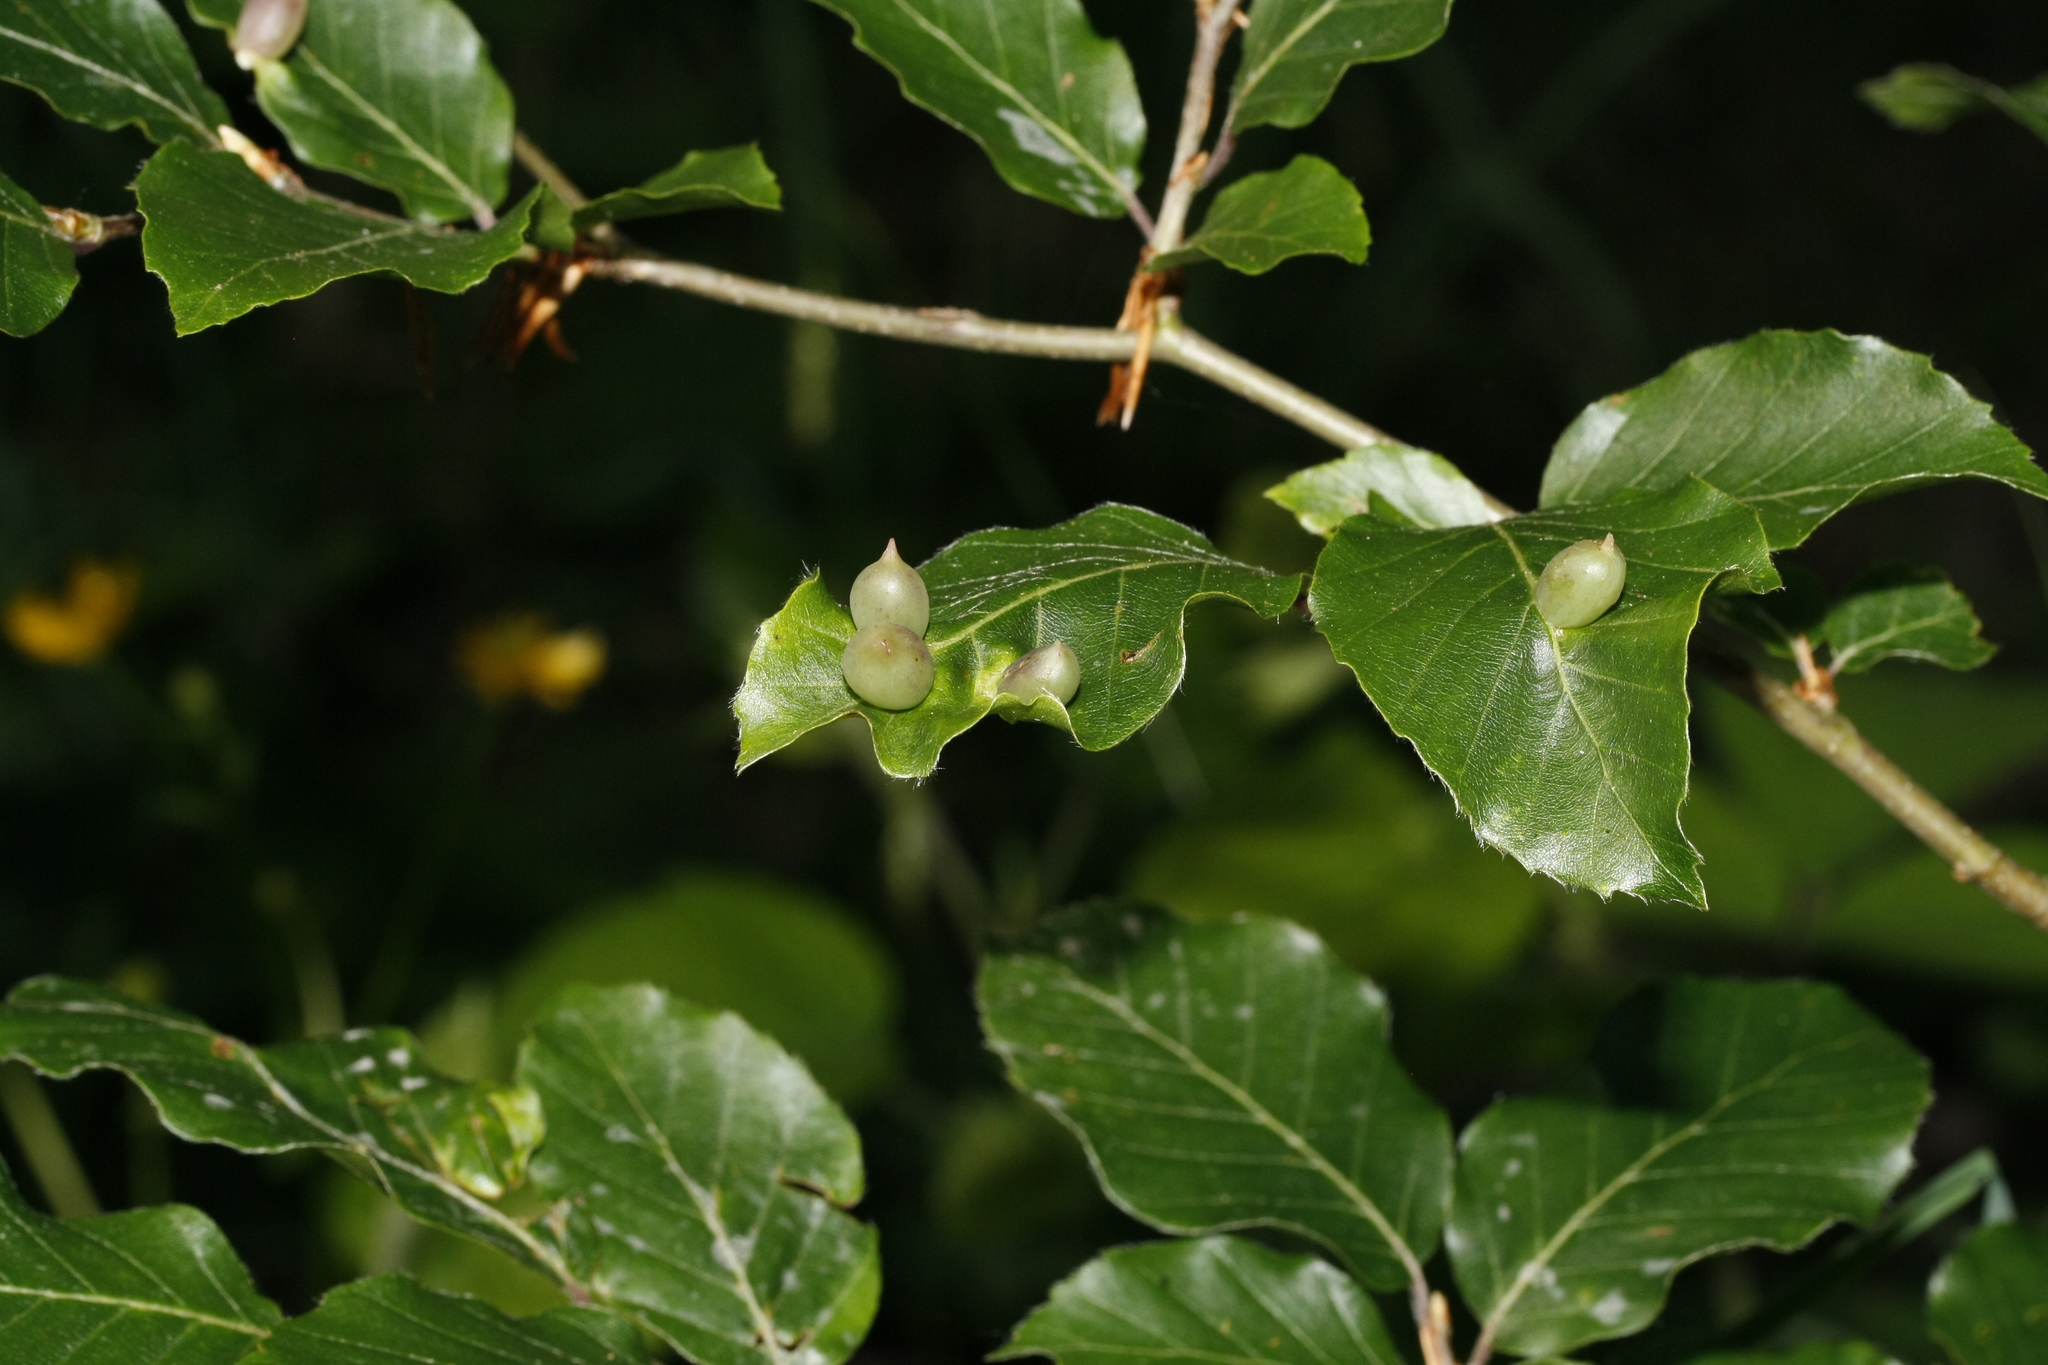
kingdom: Animalia
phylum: Arthropoda
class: Insecta
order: Diptera
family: Cecidomyiidae
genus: Mikiola
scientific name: Mikiola fagi
